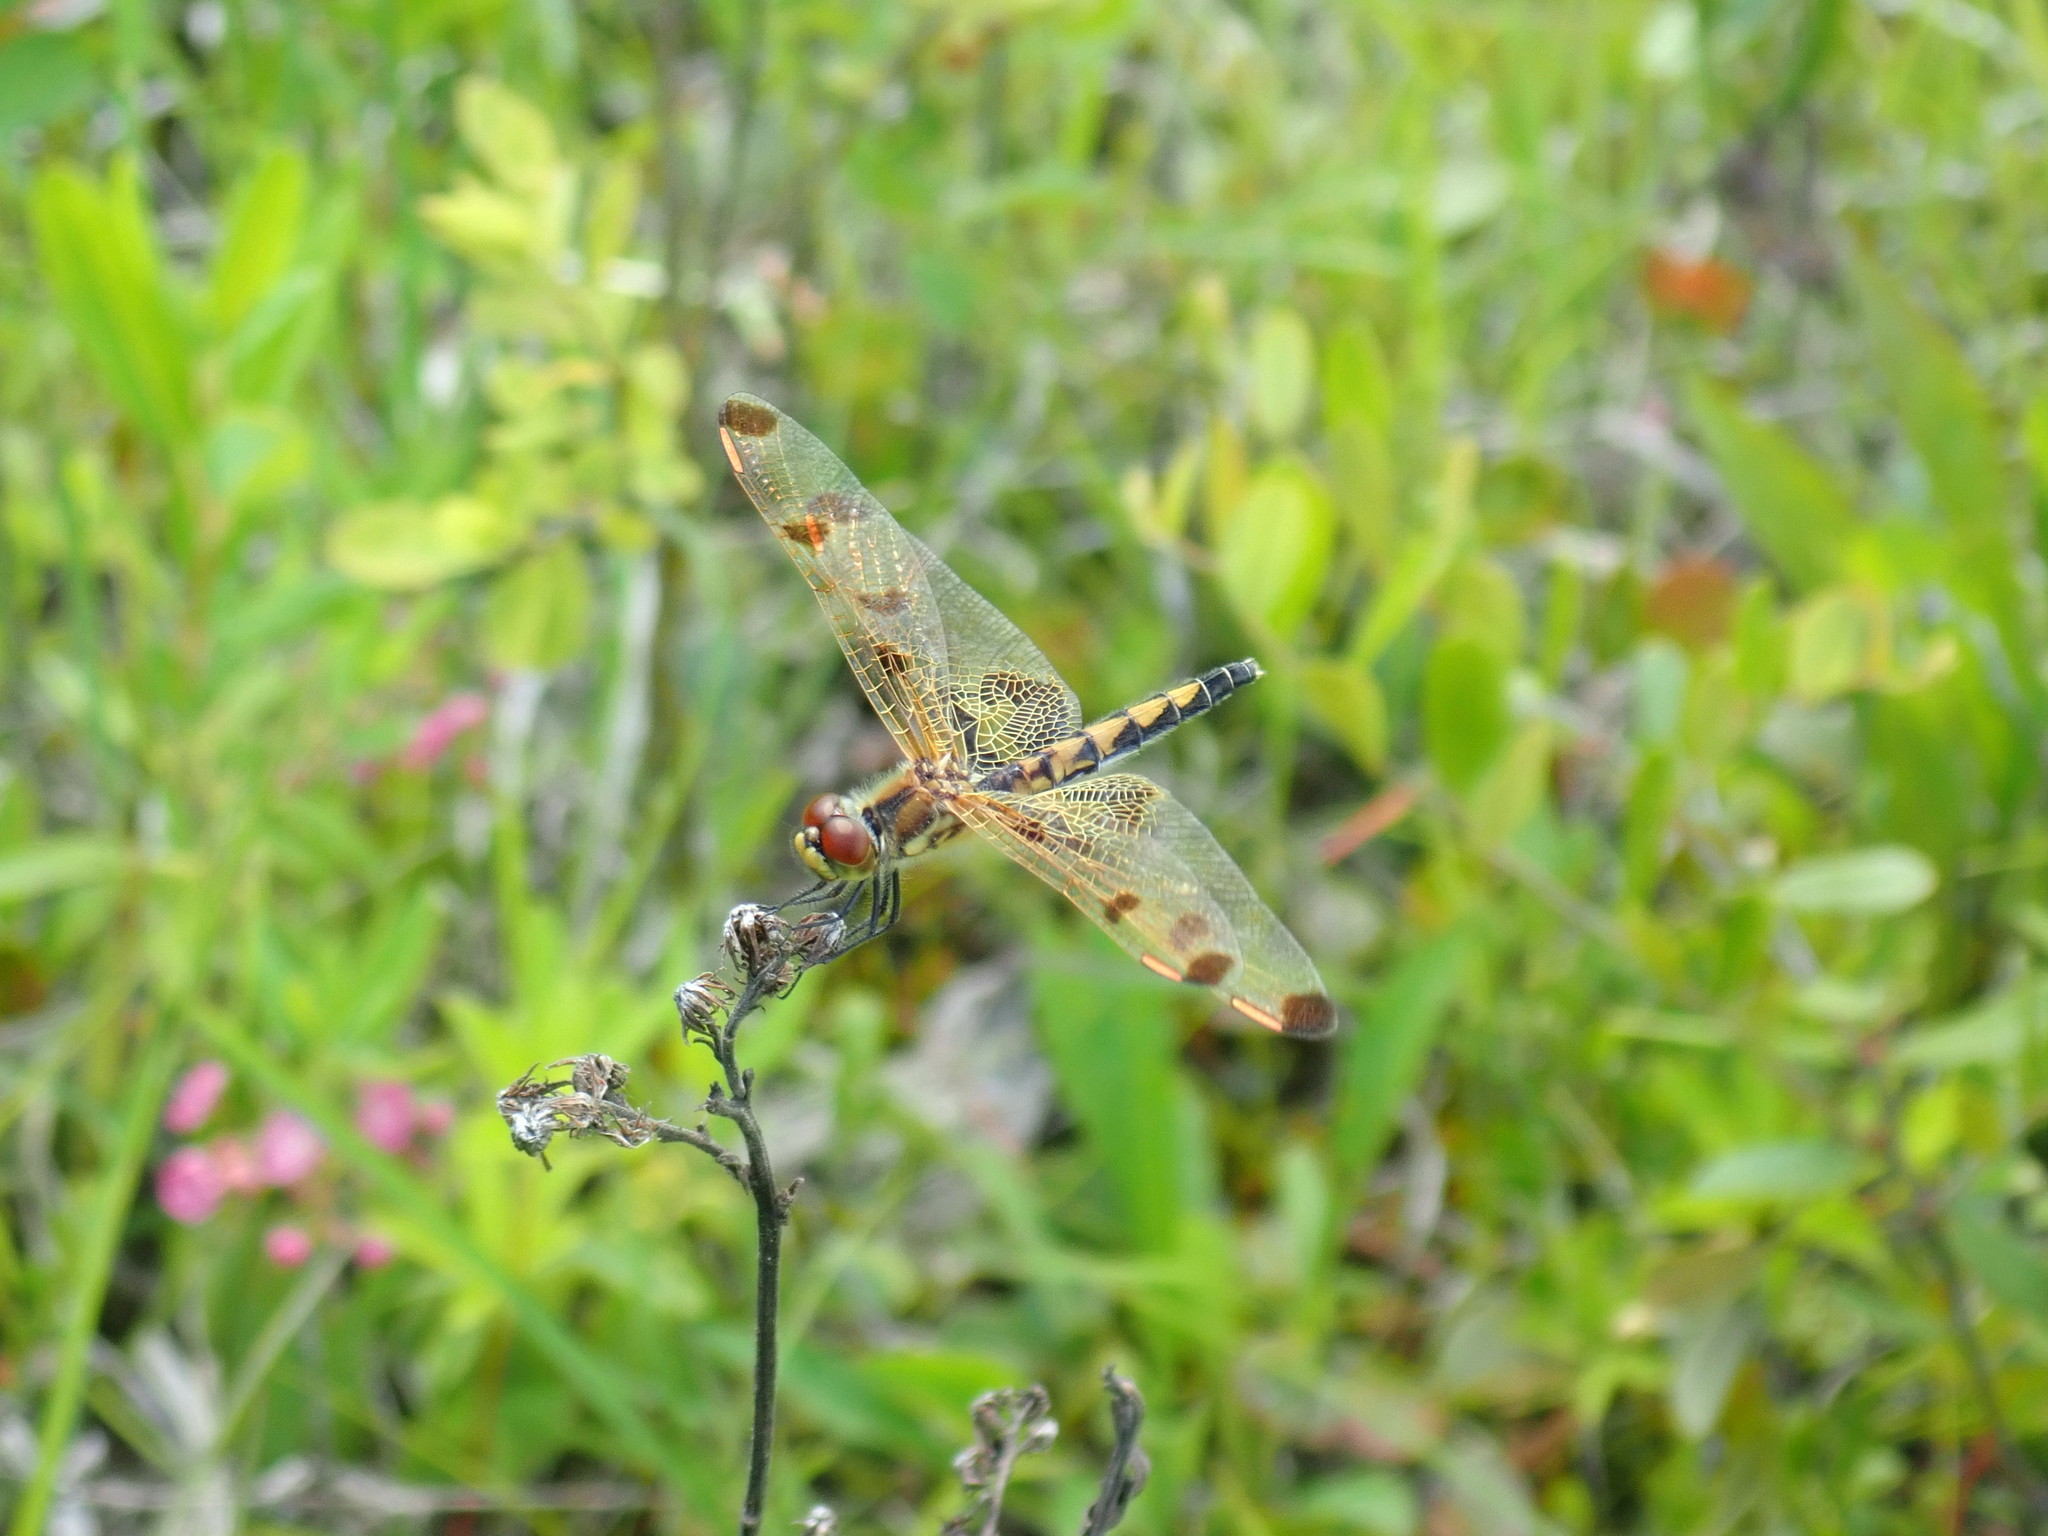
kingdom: Animalia
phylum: Arthropoda
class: Insecta
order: Odonata
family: Libellulidae
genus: Celithemis
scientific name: Celithemis elisa
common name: Calico pennant
